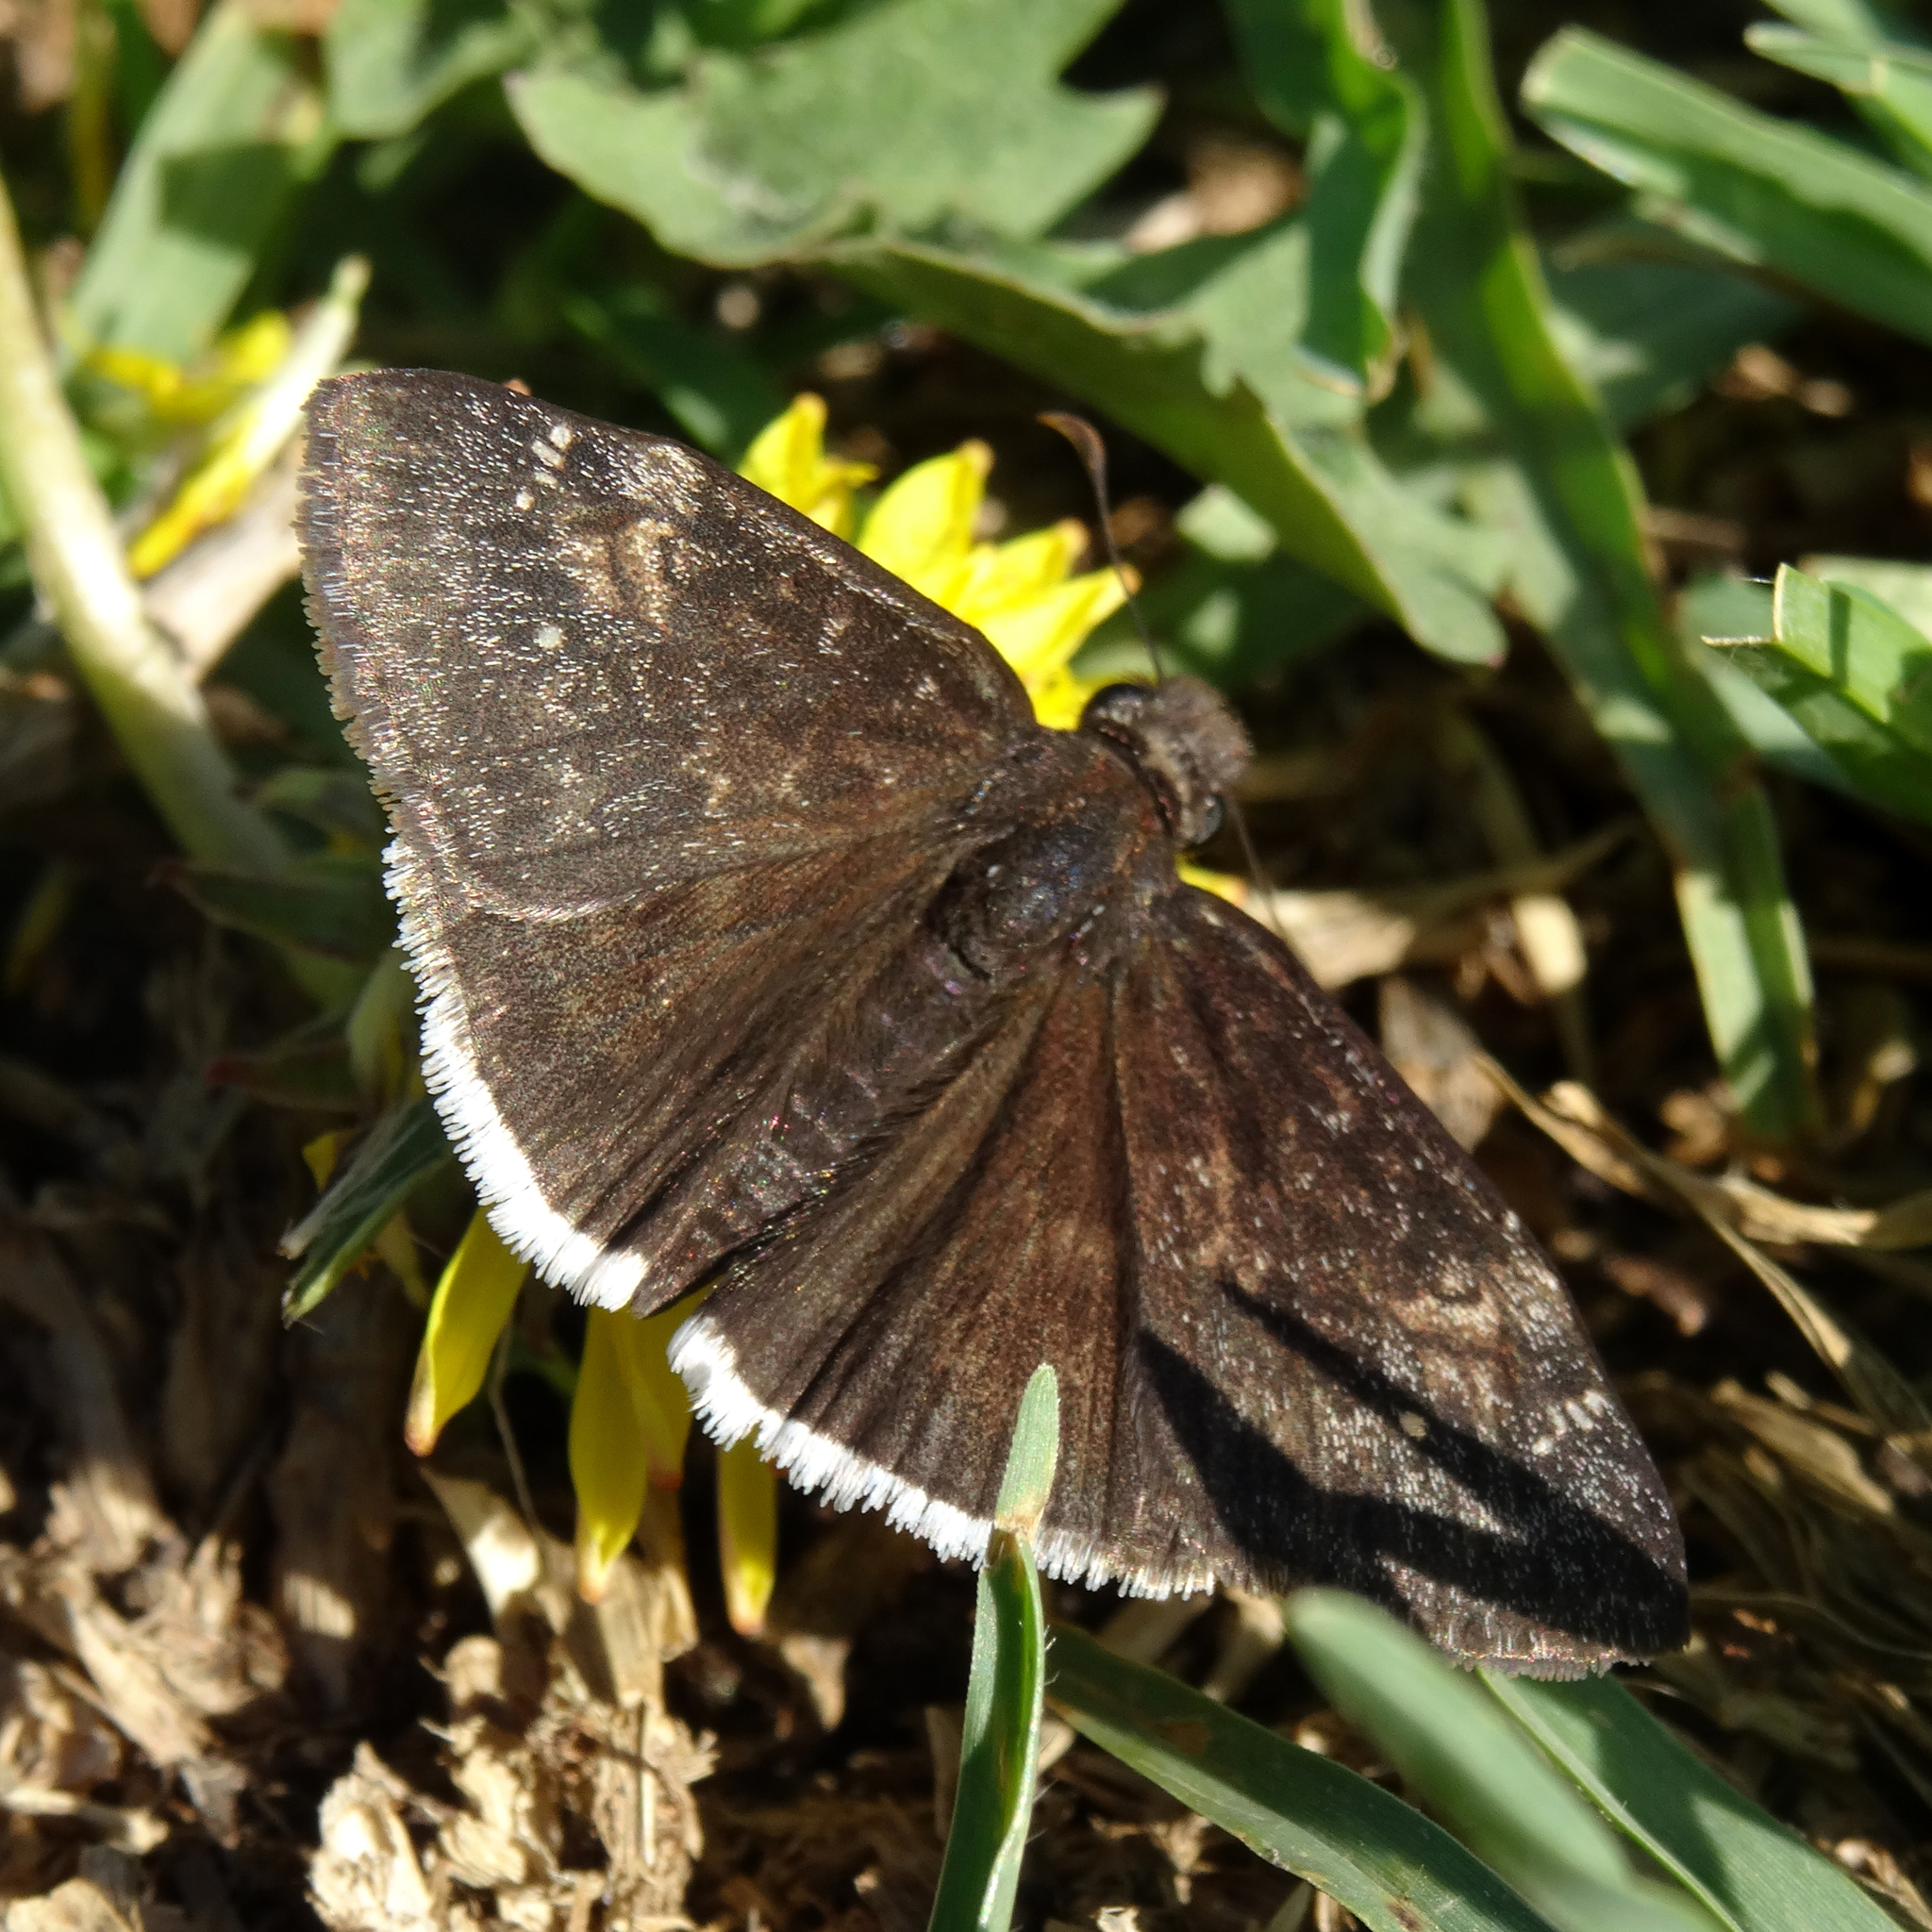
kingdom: Animalia
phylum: Arthropoda
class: Insecta
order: Lepidoptera
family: Hesperiidae
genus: Erynnis
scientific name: Erynnis funeralis
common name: Funereal duskywing
